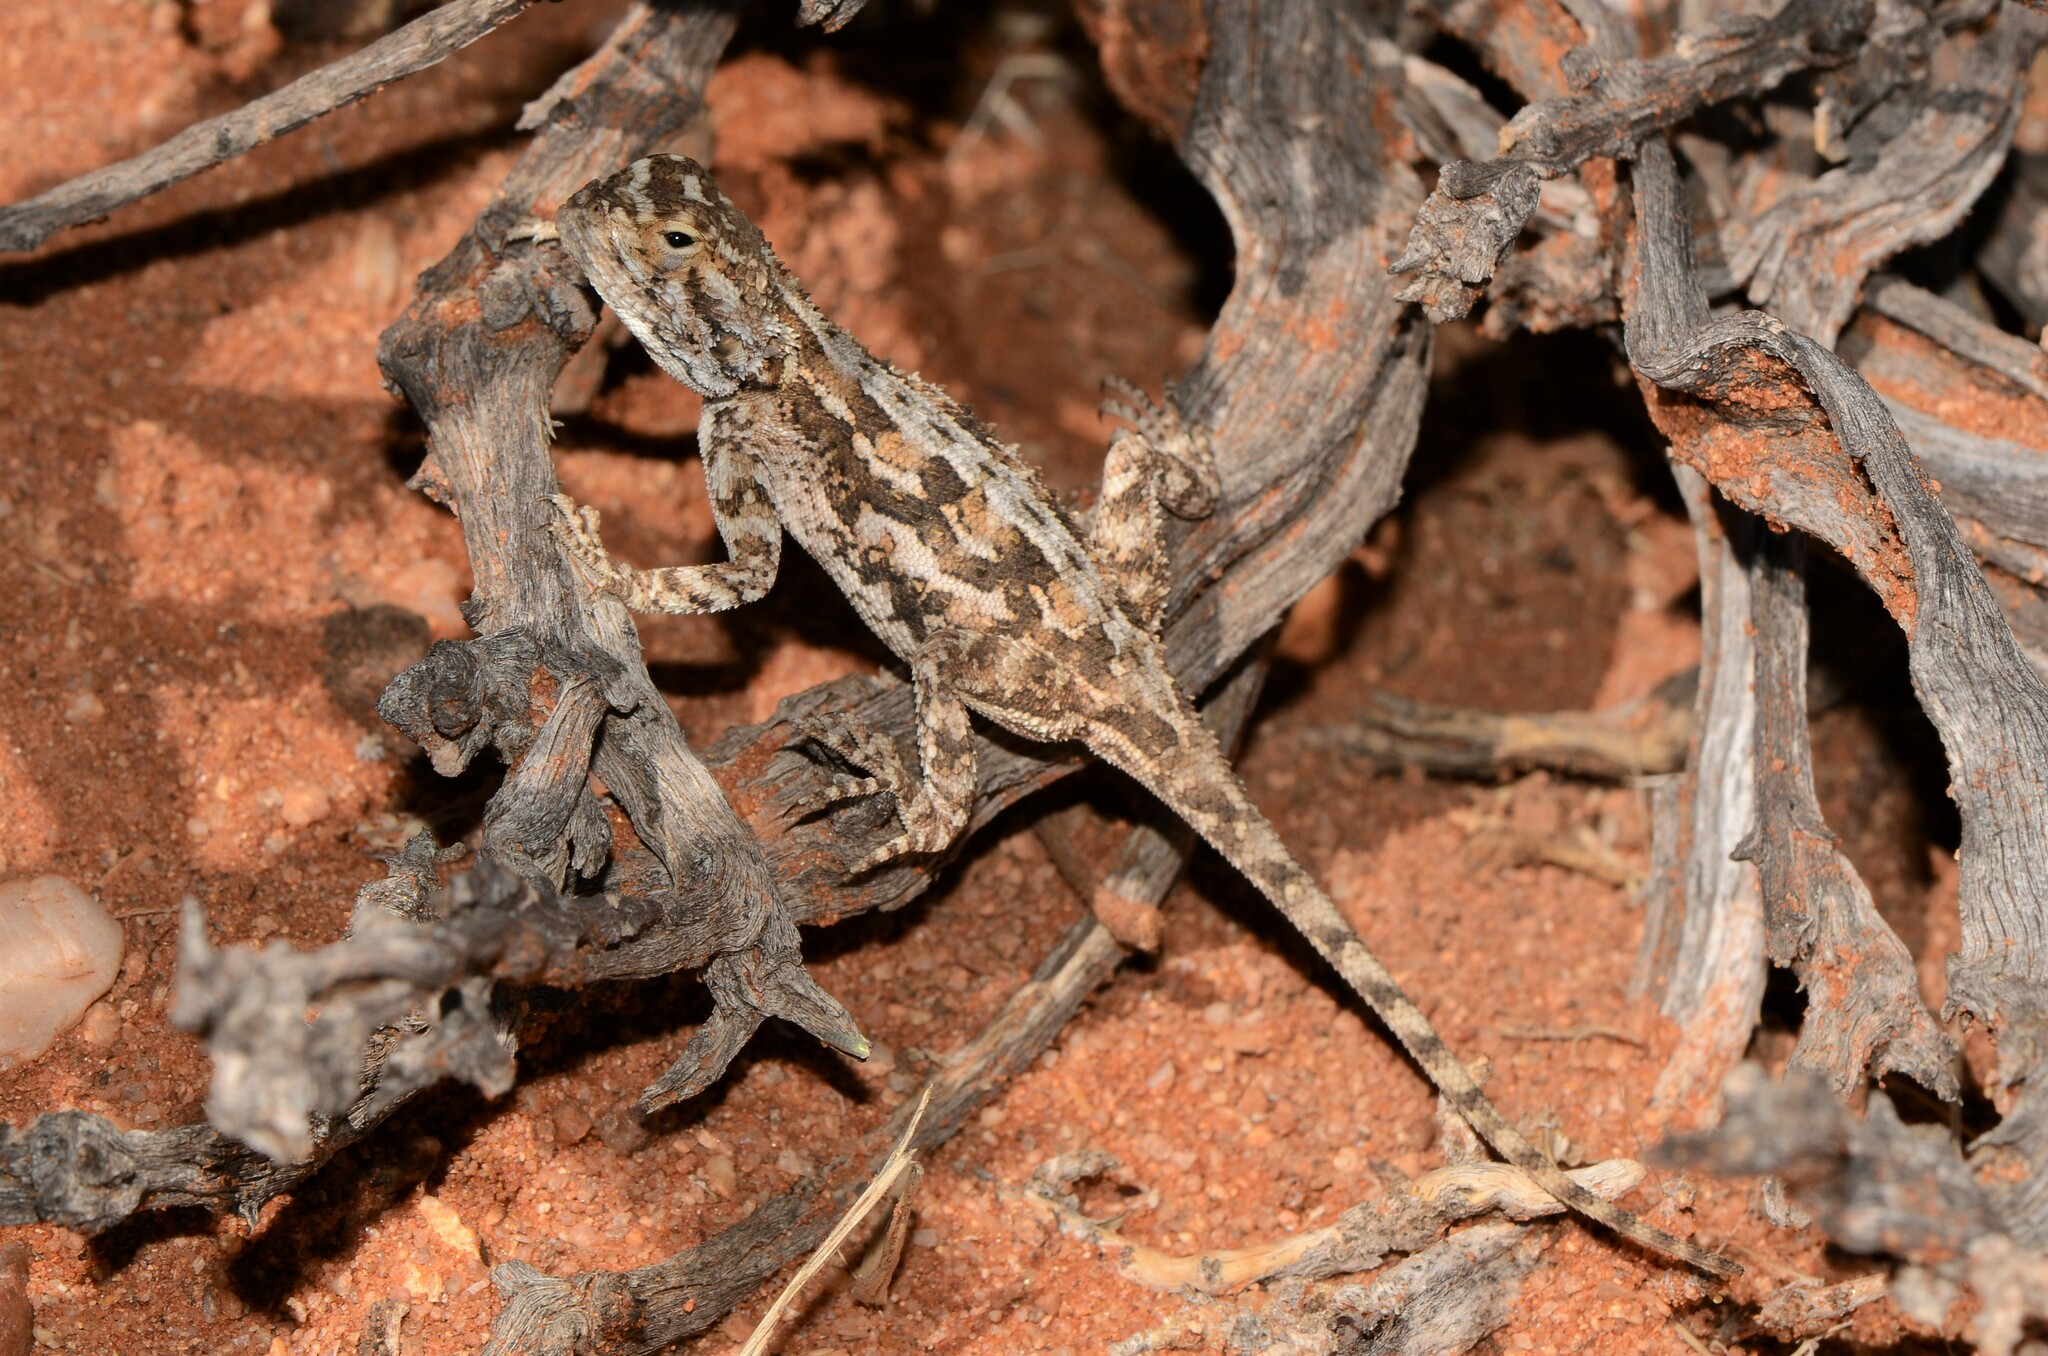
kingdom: Animalia
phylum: Chordata
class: Squamata
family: Agamidae
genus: Agama
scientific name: Agama aculeata
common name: Common ground agama
